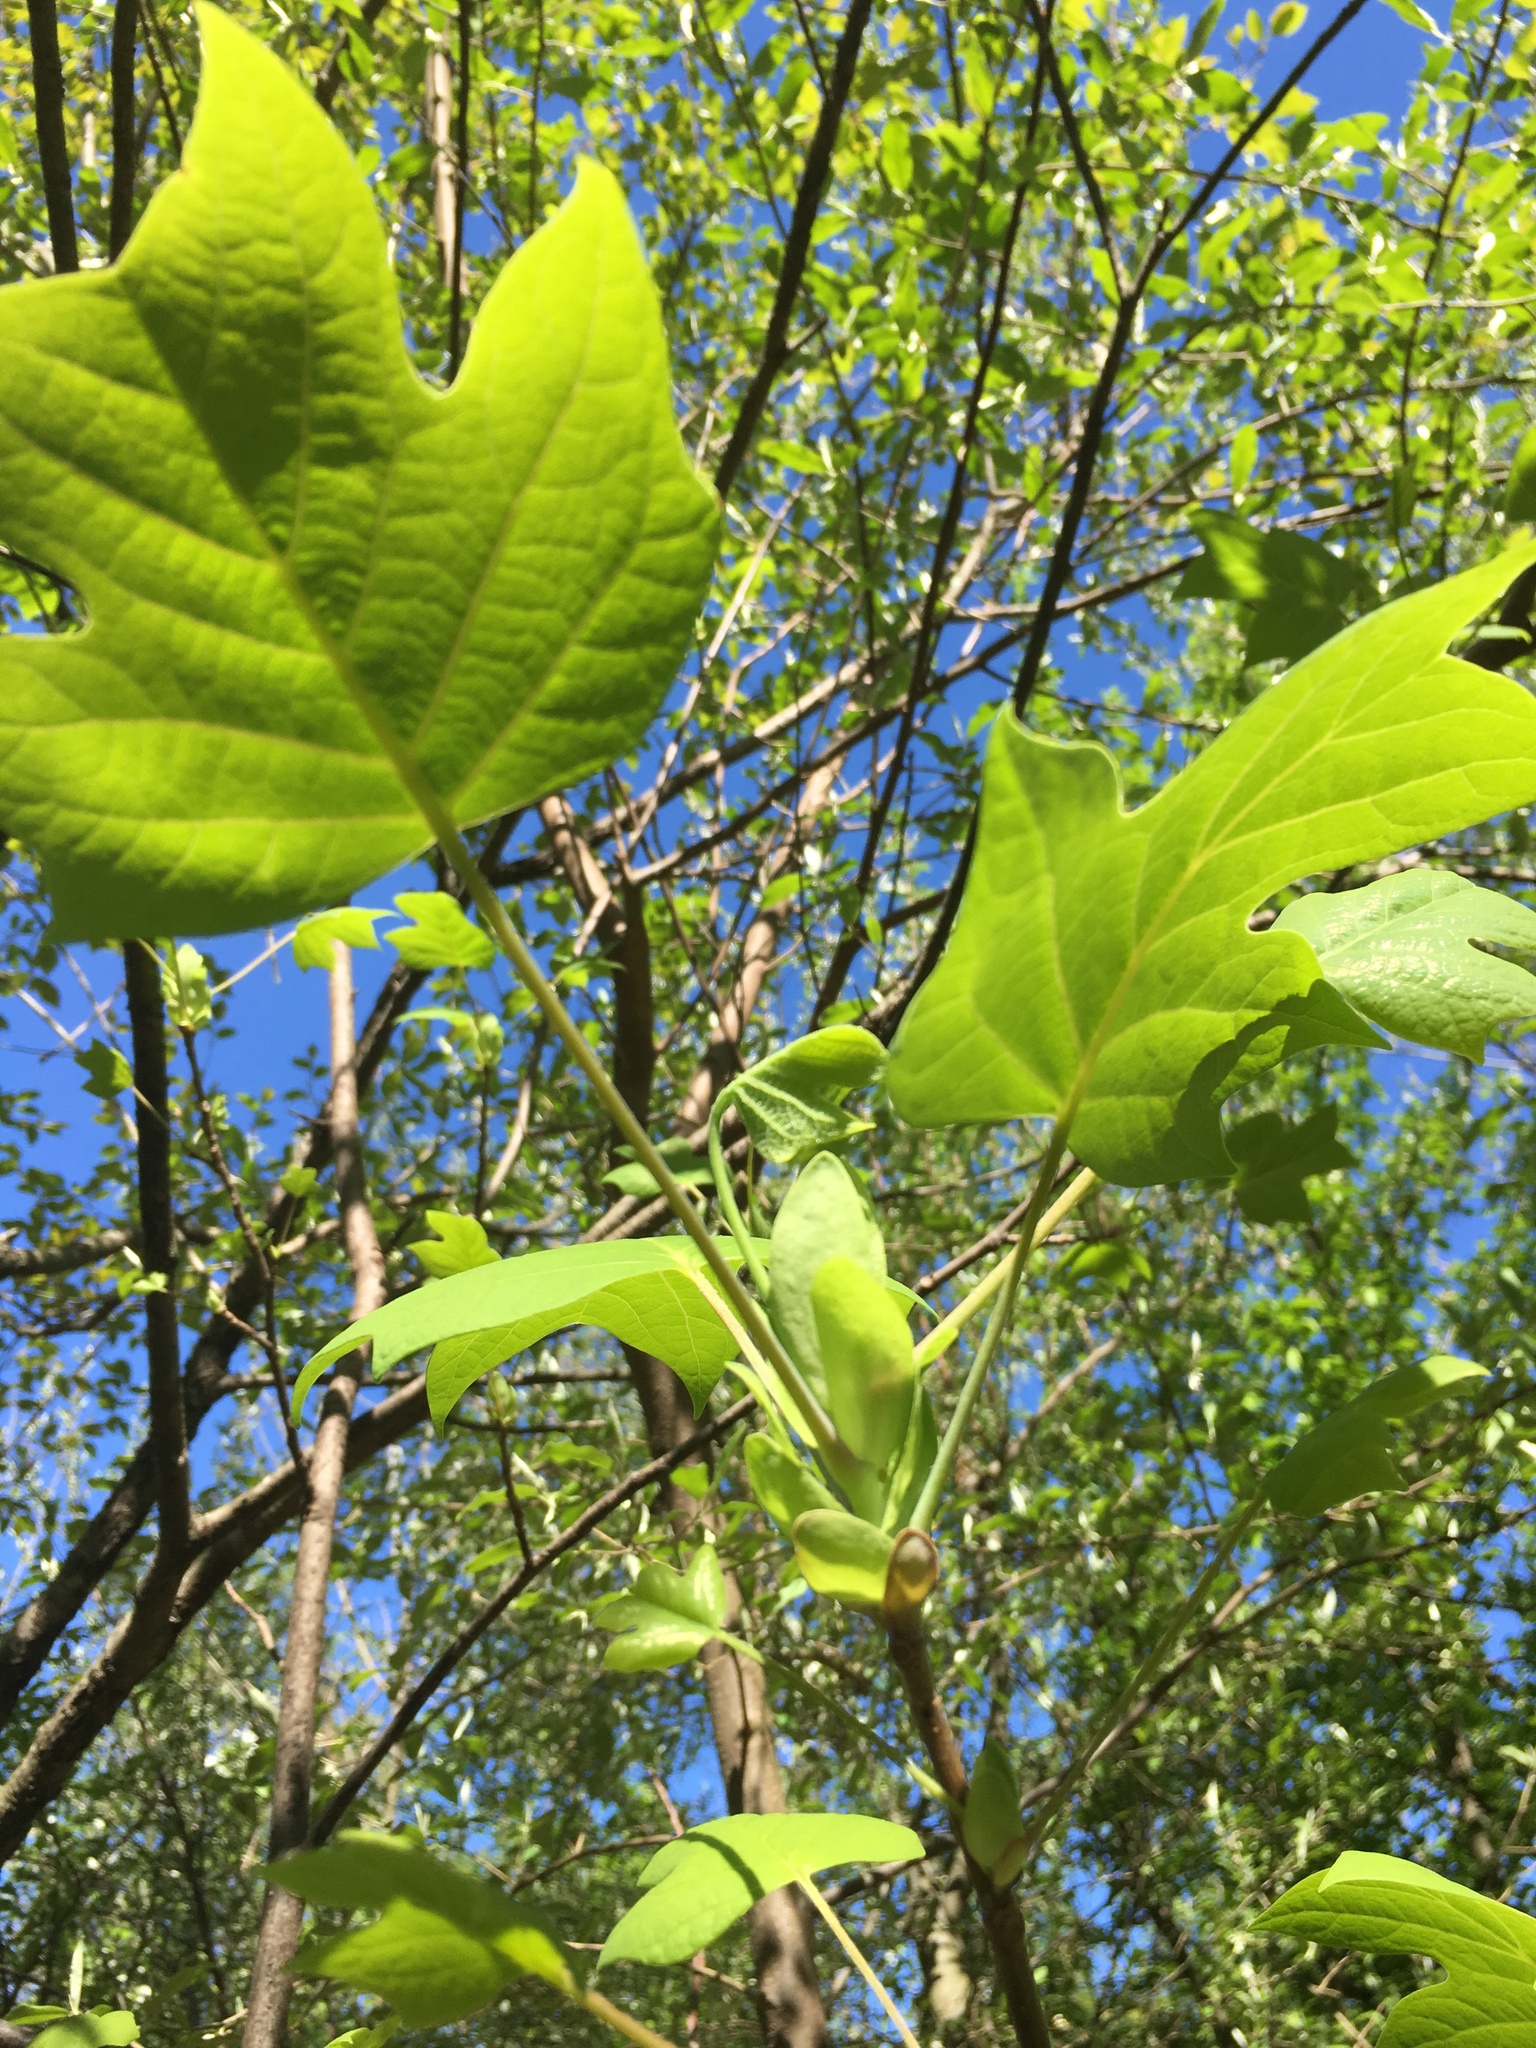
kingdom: Plantae
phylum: Tracheophyta
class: Magnoliopsida
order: Magnoliales
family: Magnoliaceae
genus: Liriodendron
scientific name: Liriodendron tulipifera
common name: Tulip tree
